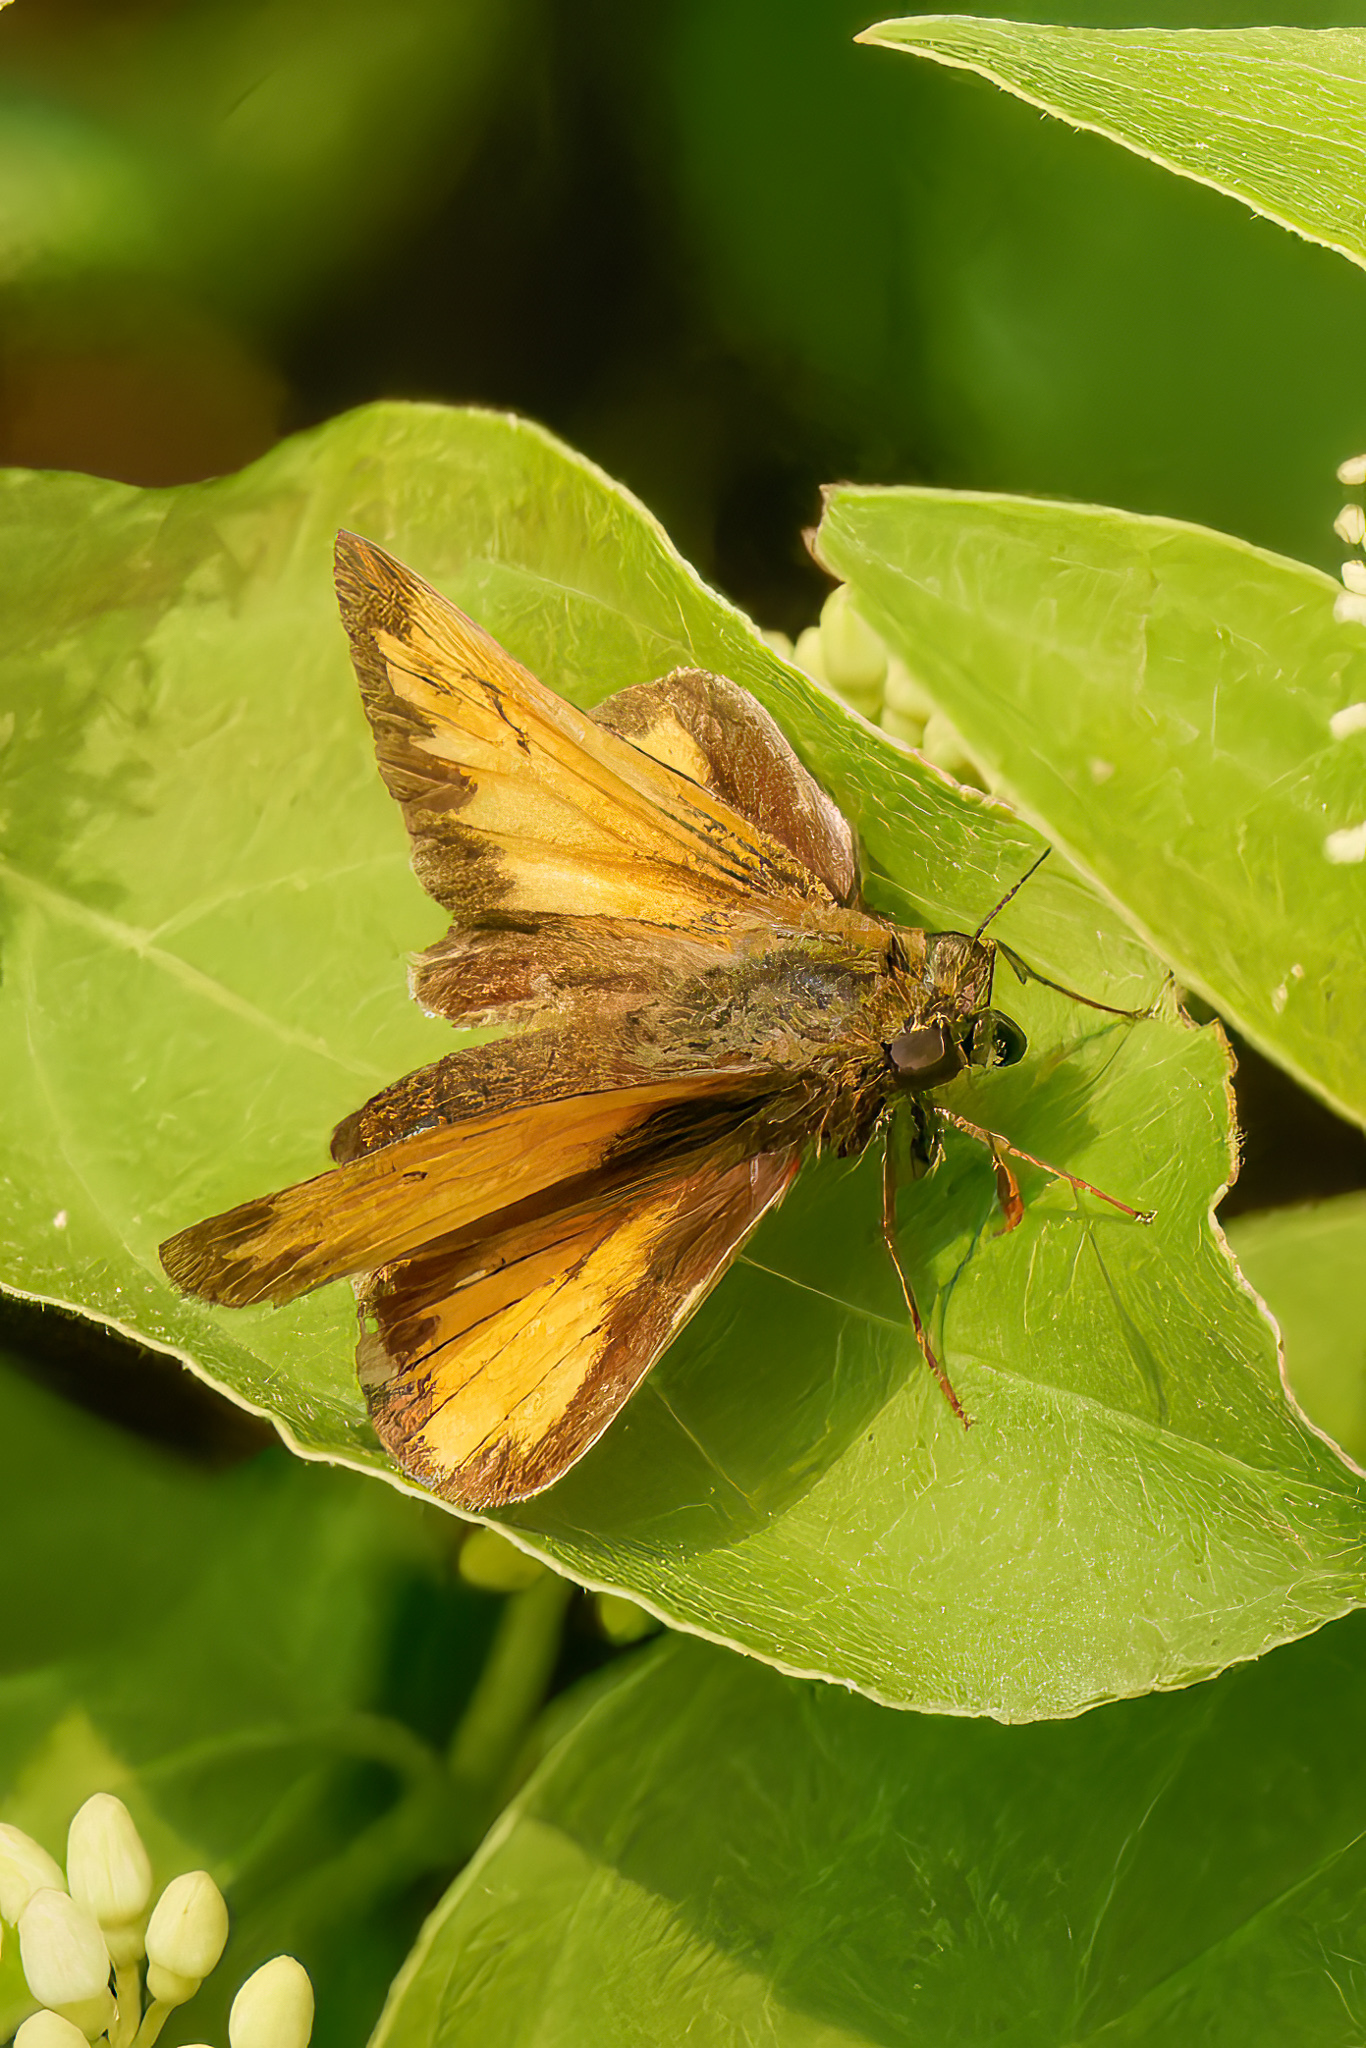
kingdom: Animalia
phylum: Arthropoda
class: Insecta
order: Lepidoptera
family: Hesperiidae
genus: Lon
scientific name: Lon hobomok
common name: Hobomok skipper
